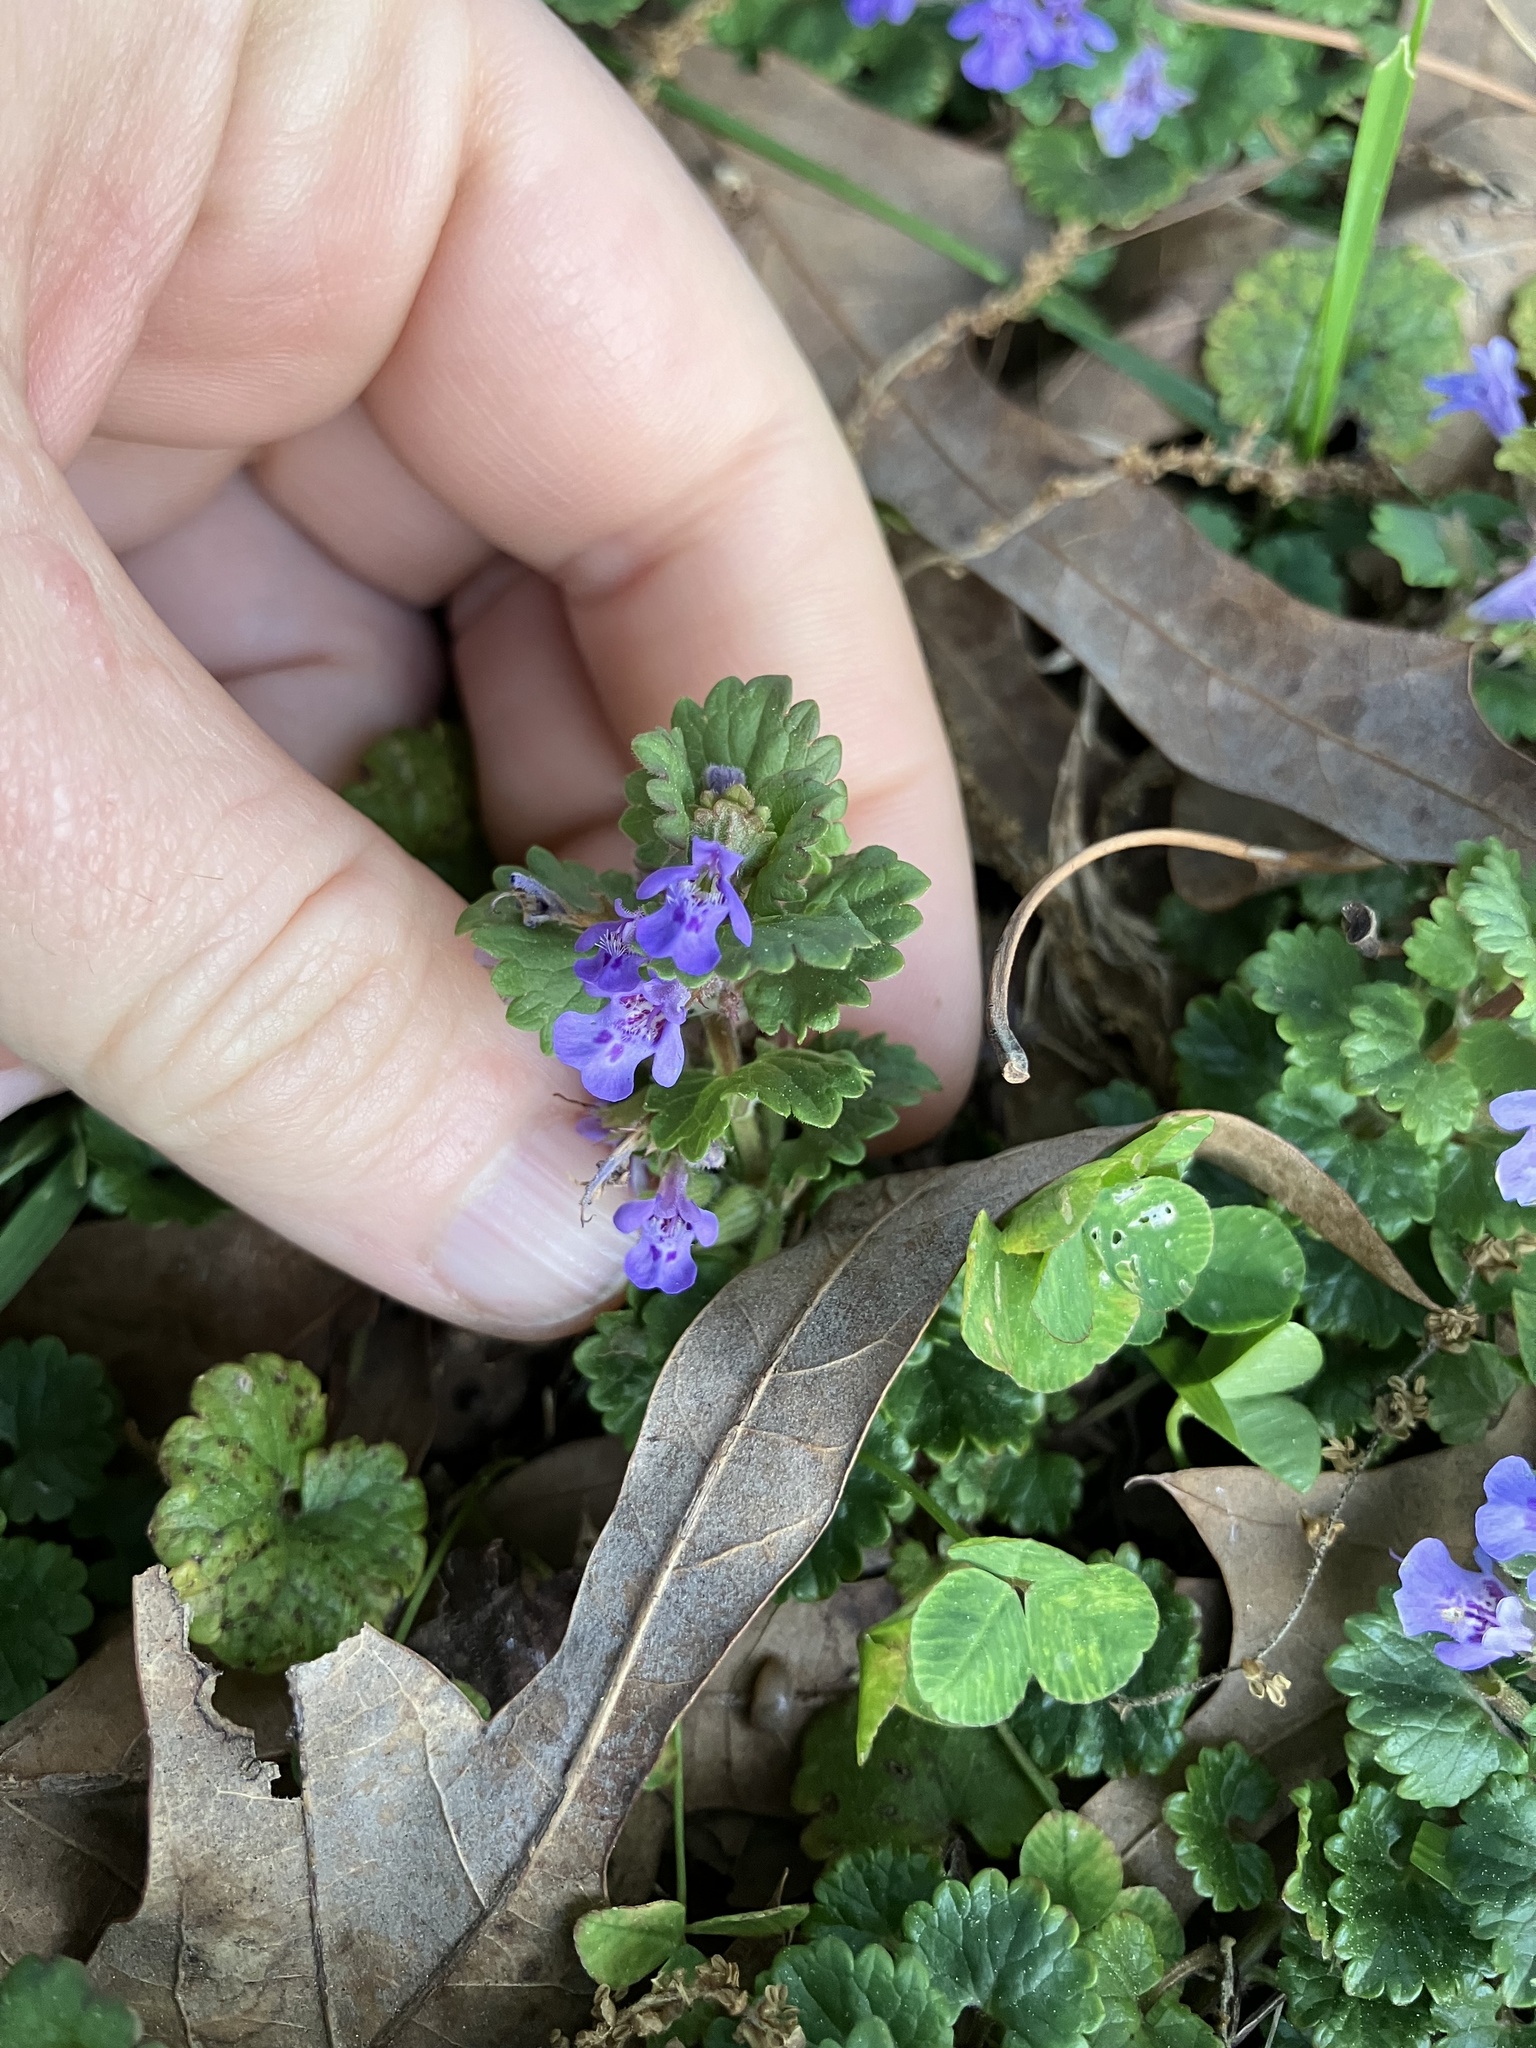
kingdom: Plantae
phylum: Tracheophyta
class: Magnoliopsida
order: Lamiales
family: Lamiaceae
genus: Glechoma
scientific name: Glechoma hederacea
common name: Ground ivy
